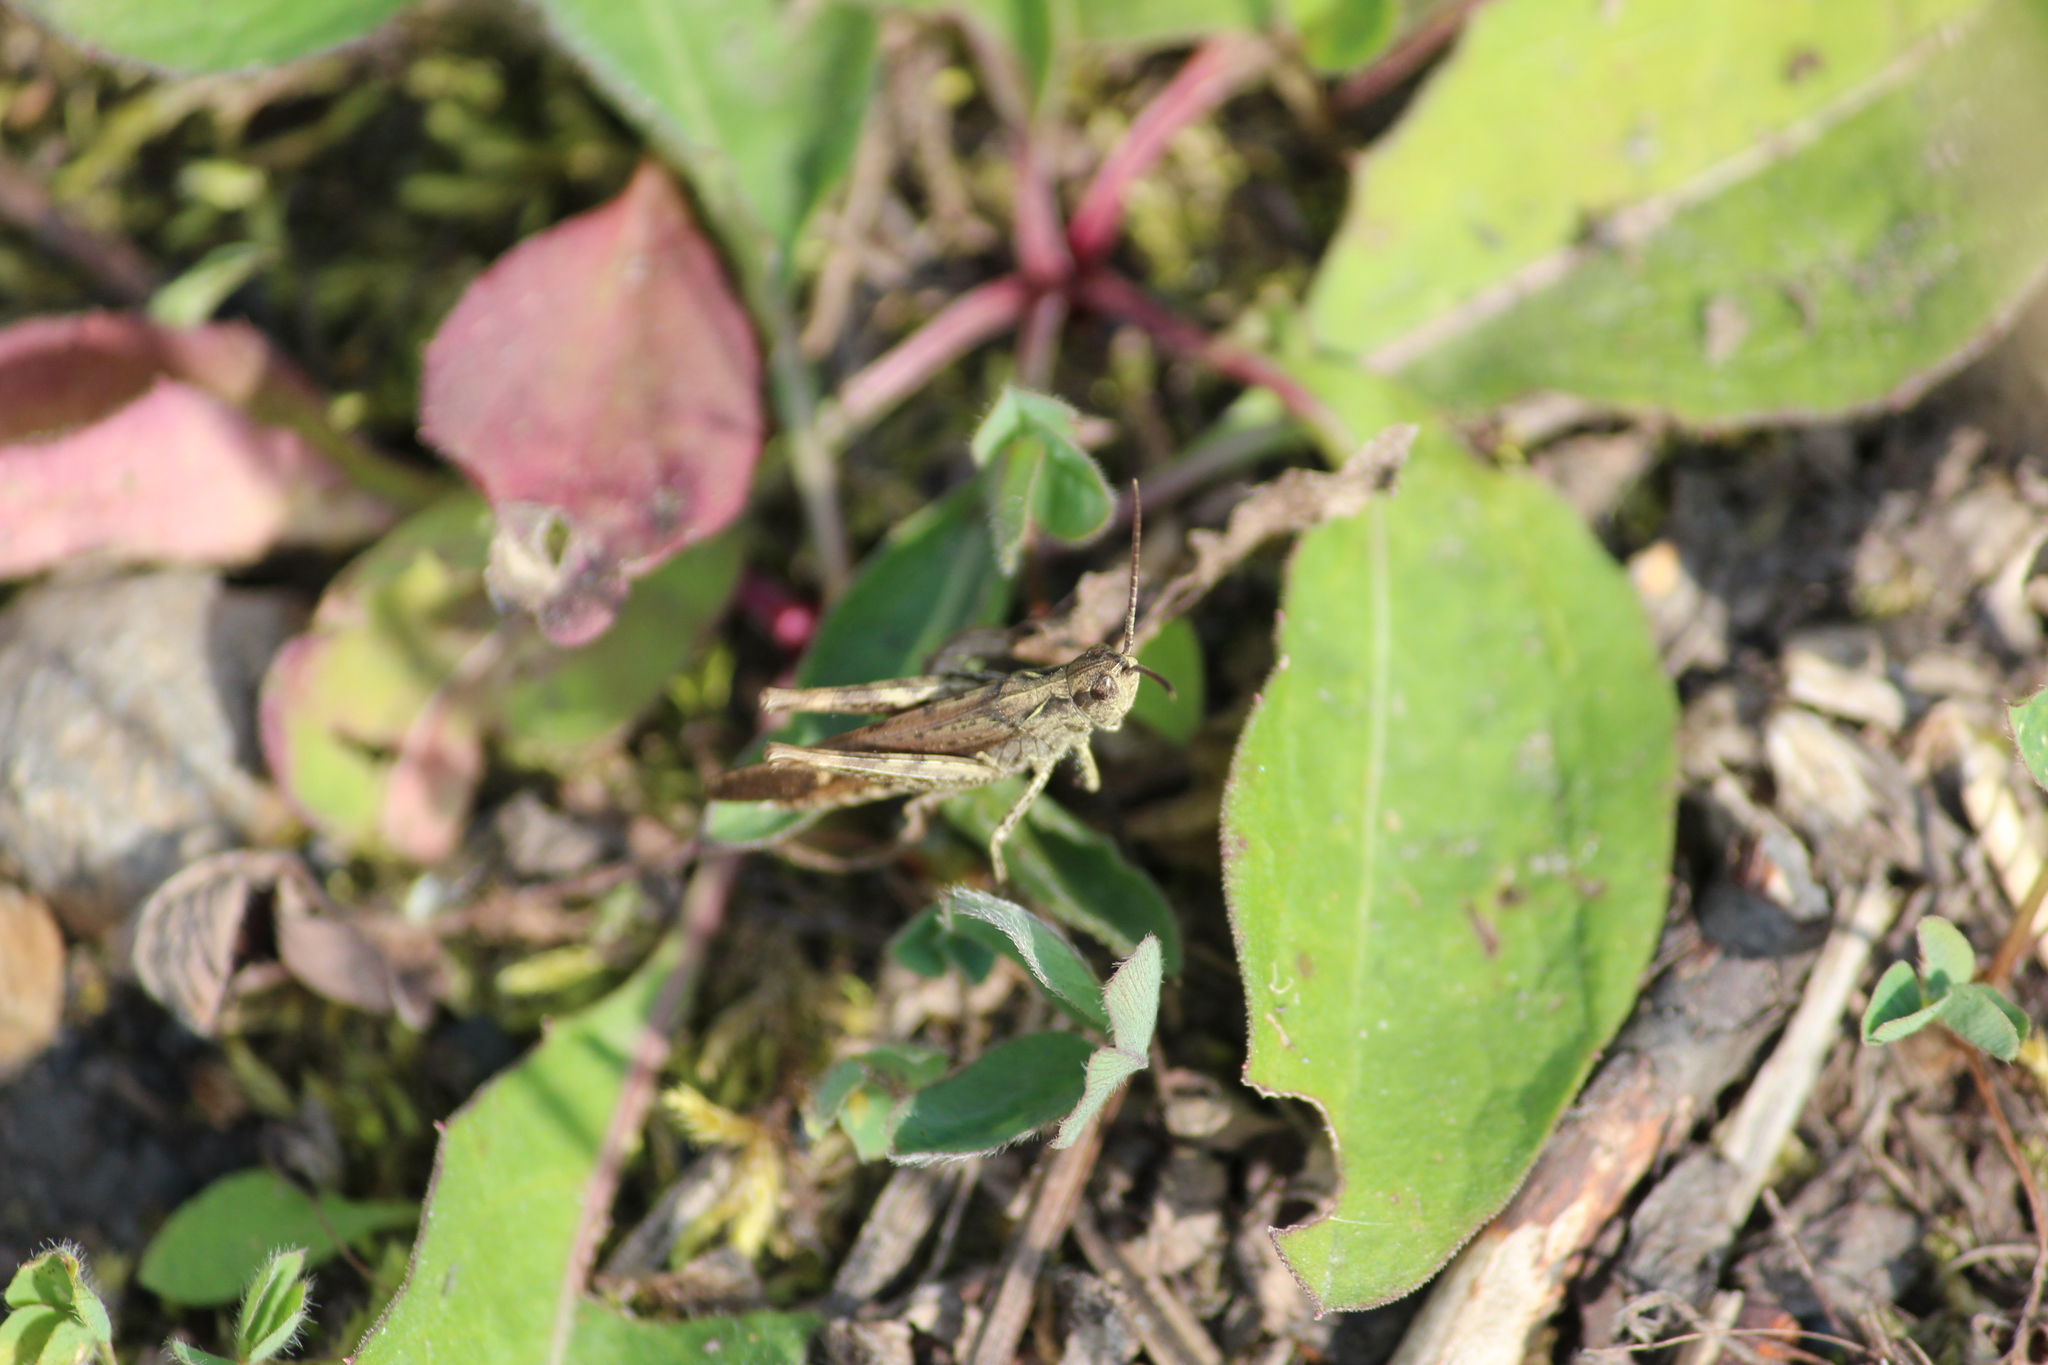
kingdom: Animalia
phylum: Arthropoda
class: Insecta
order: Orthoptera
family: Acrididae
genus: Glyptobothrus
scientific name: Glyptobothrus
